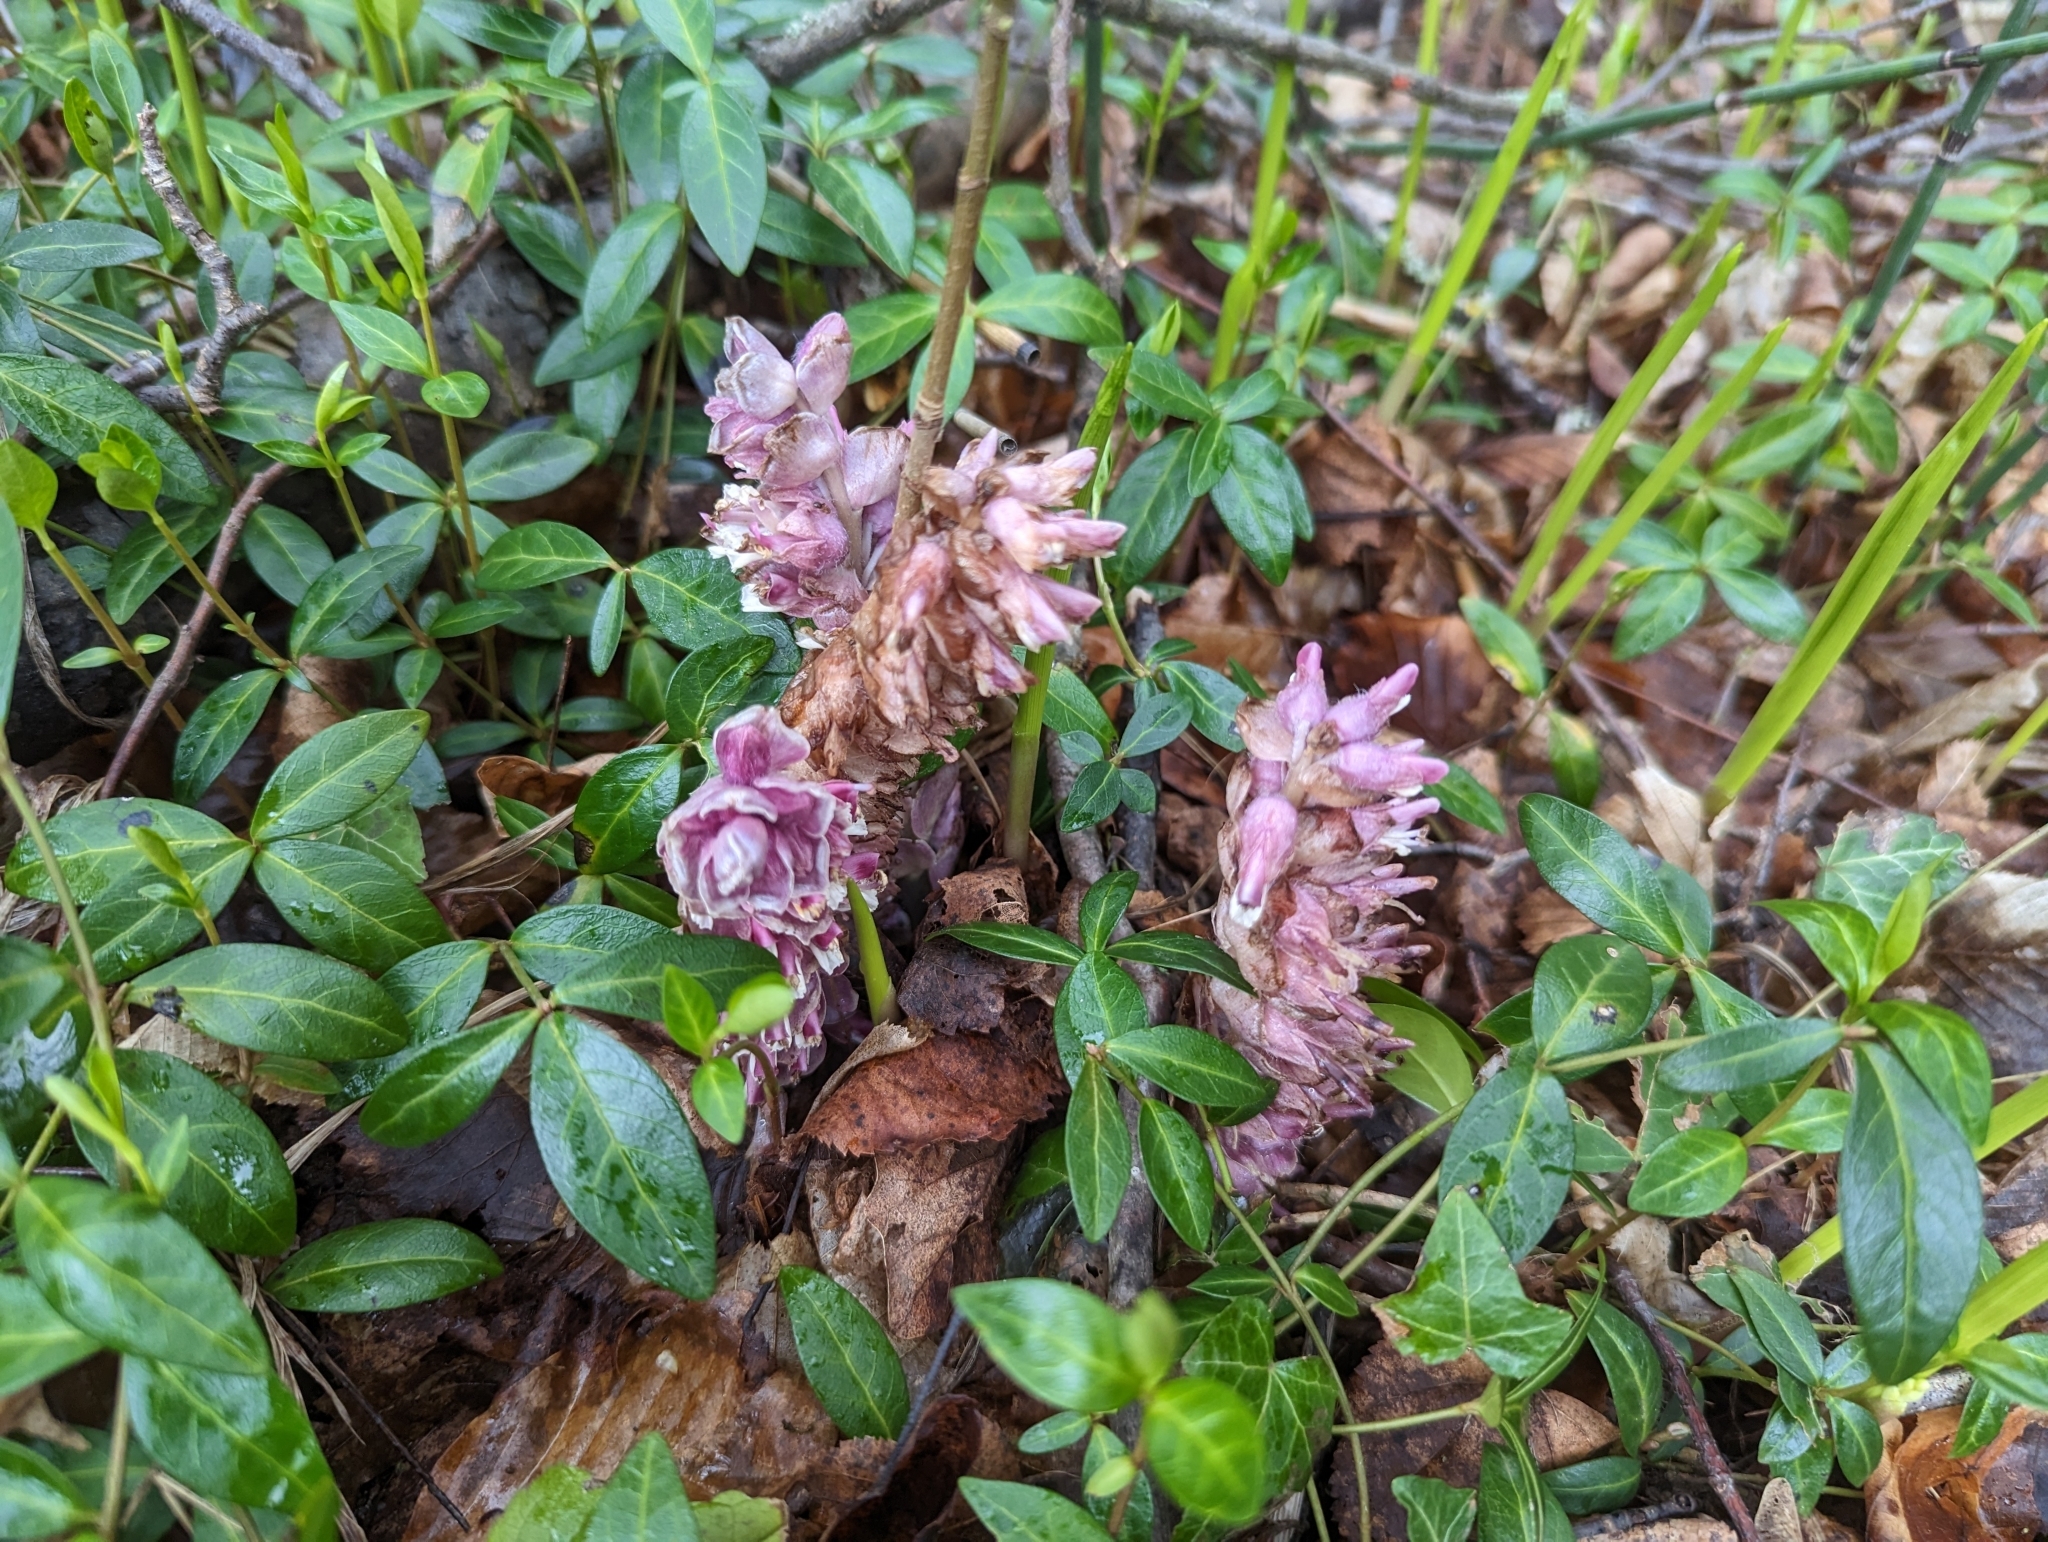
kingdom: Plantae
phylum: Tracheophyta
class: Magnoliopsida
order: Lamiales
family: Orobanchaceae
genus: Lathraea
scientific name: Lathraea squamaria
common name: Toothwort
